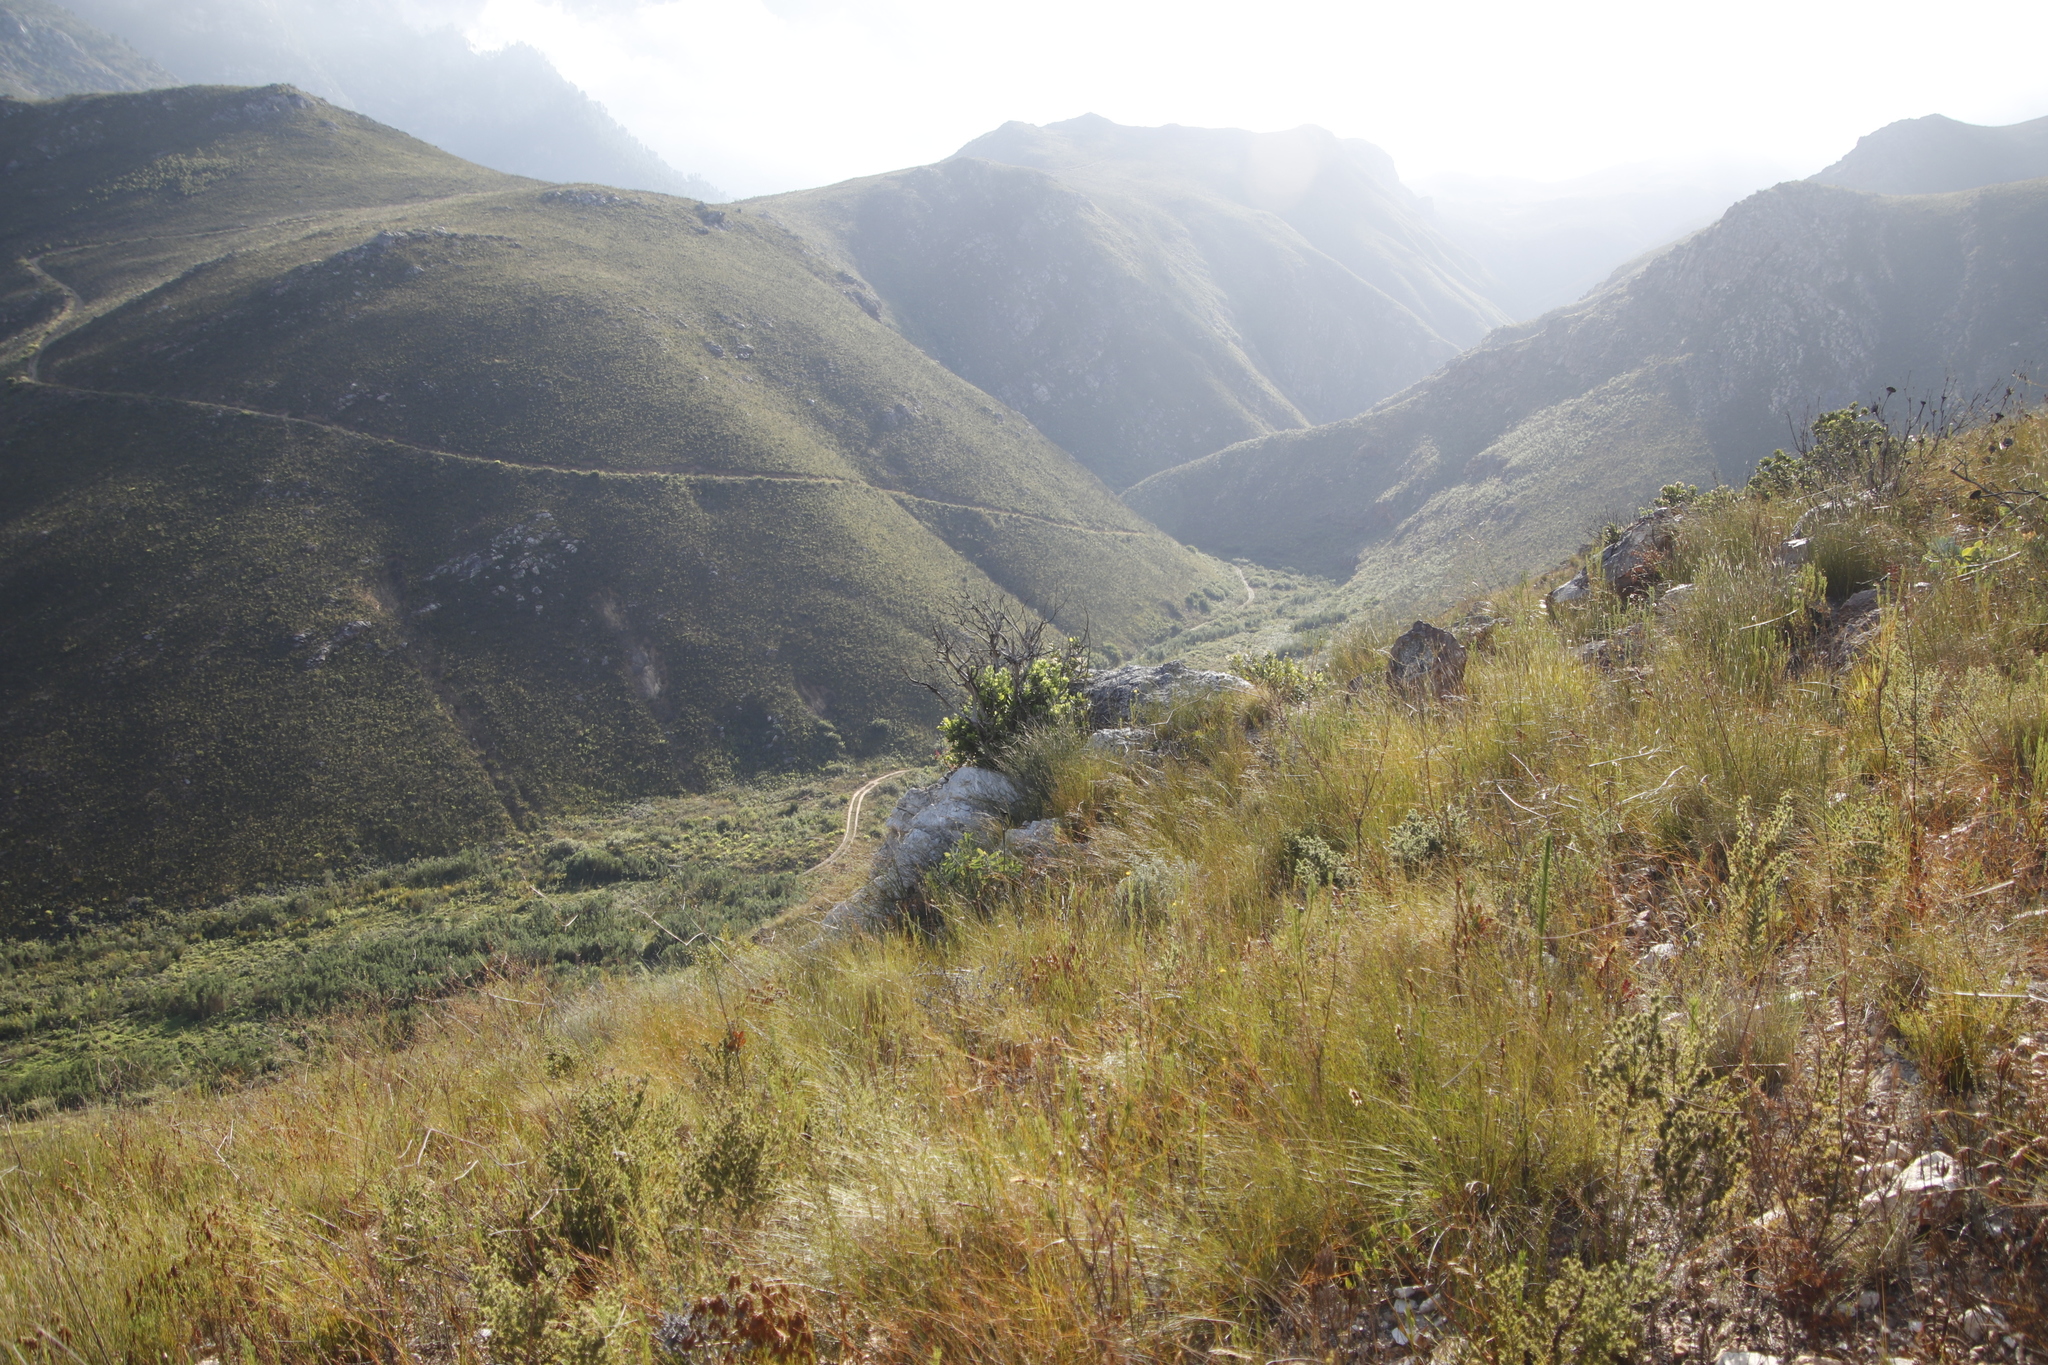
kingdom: Plantae
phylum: Tracheophyta
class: Magnoliopsida
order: Sapindales
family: Anacardiaceae
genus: Heeria
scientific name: Heeria argentea
